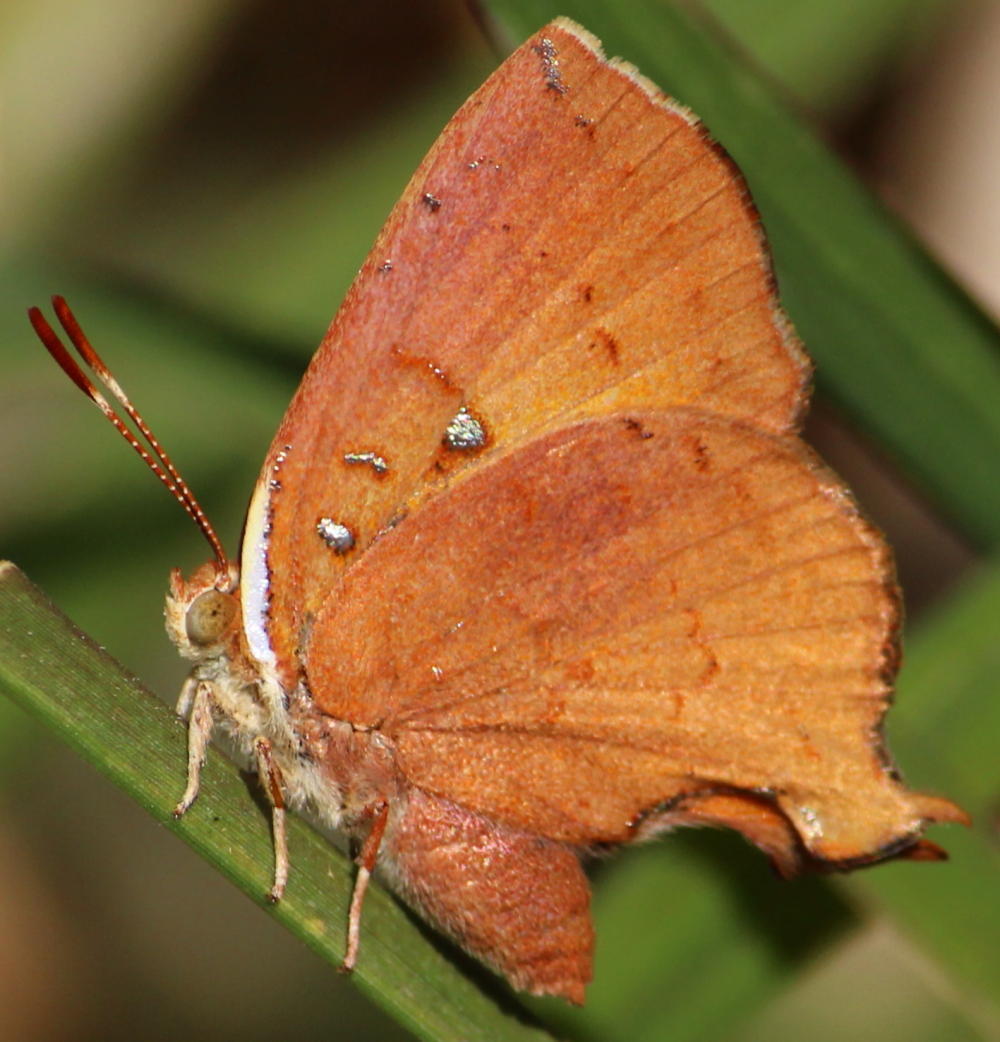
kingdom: Animalia
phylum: Arthropoda
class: Insecta
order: Lepidoptera
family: Lycaenidae
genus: Axiocerses
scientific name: Axiocerses amanga
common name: Bush scarlet
